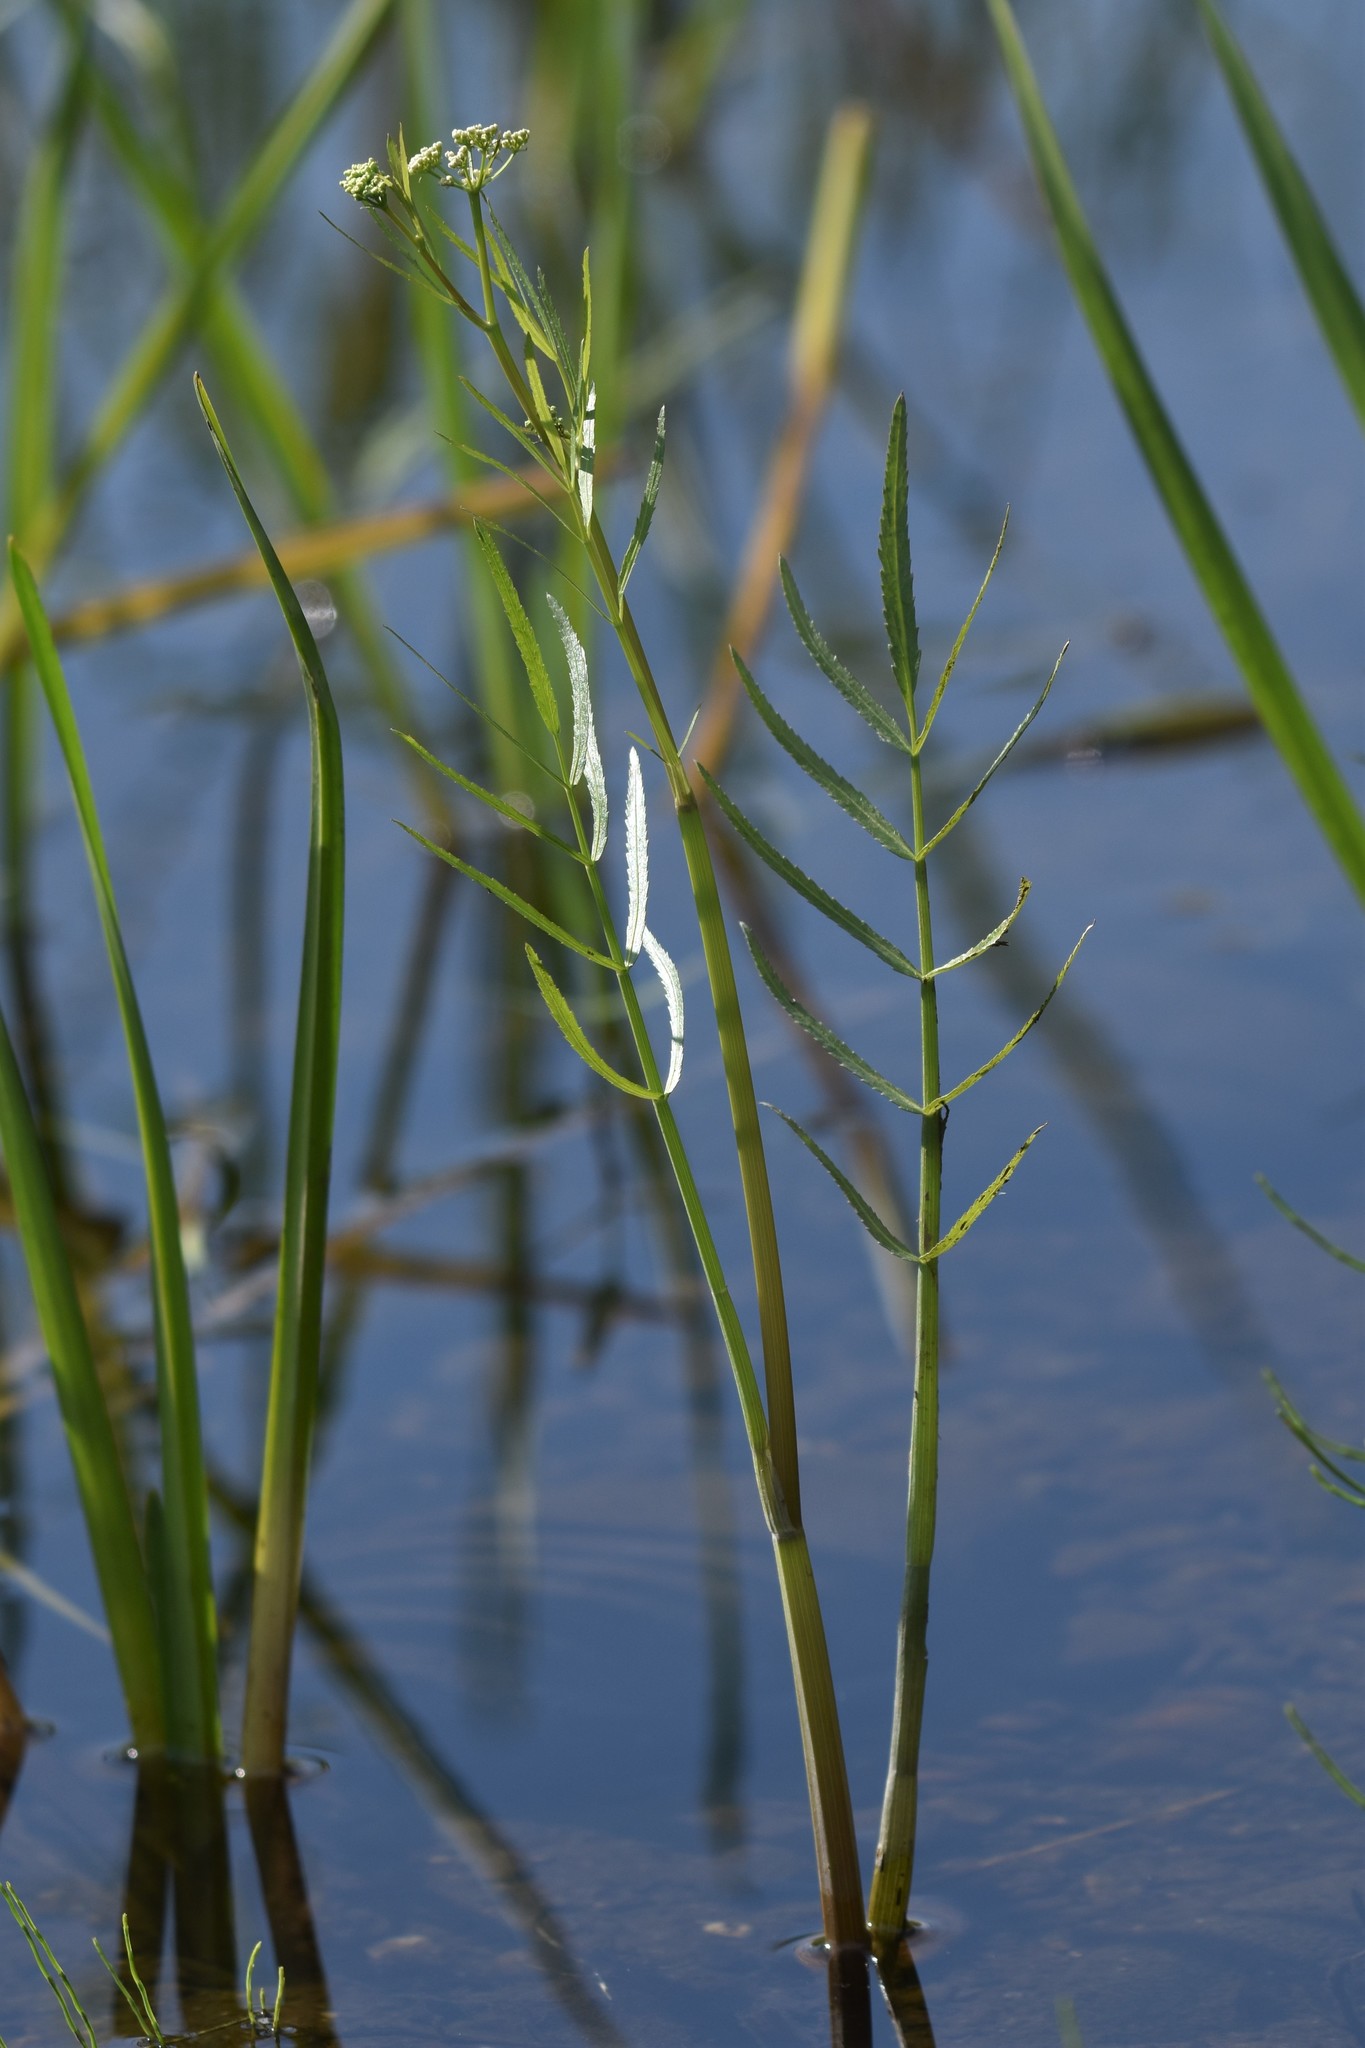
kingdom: Plantae
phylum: Tracheophyta
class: Magnoliopsida
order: Apiales
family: Apiaceae
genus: Sium
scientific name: Sium suave
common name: Hemlock water-parsnip
